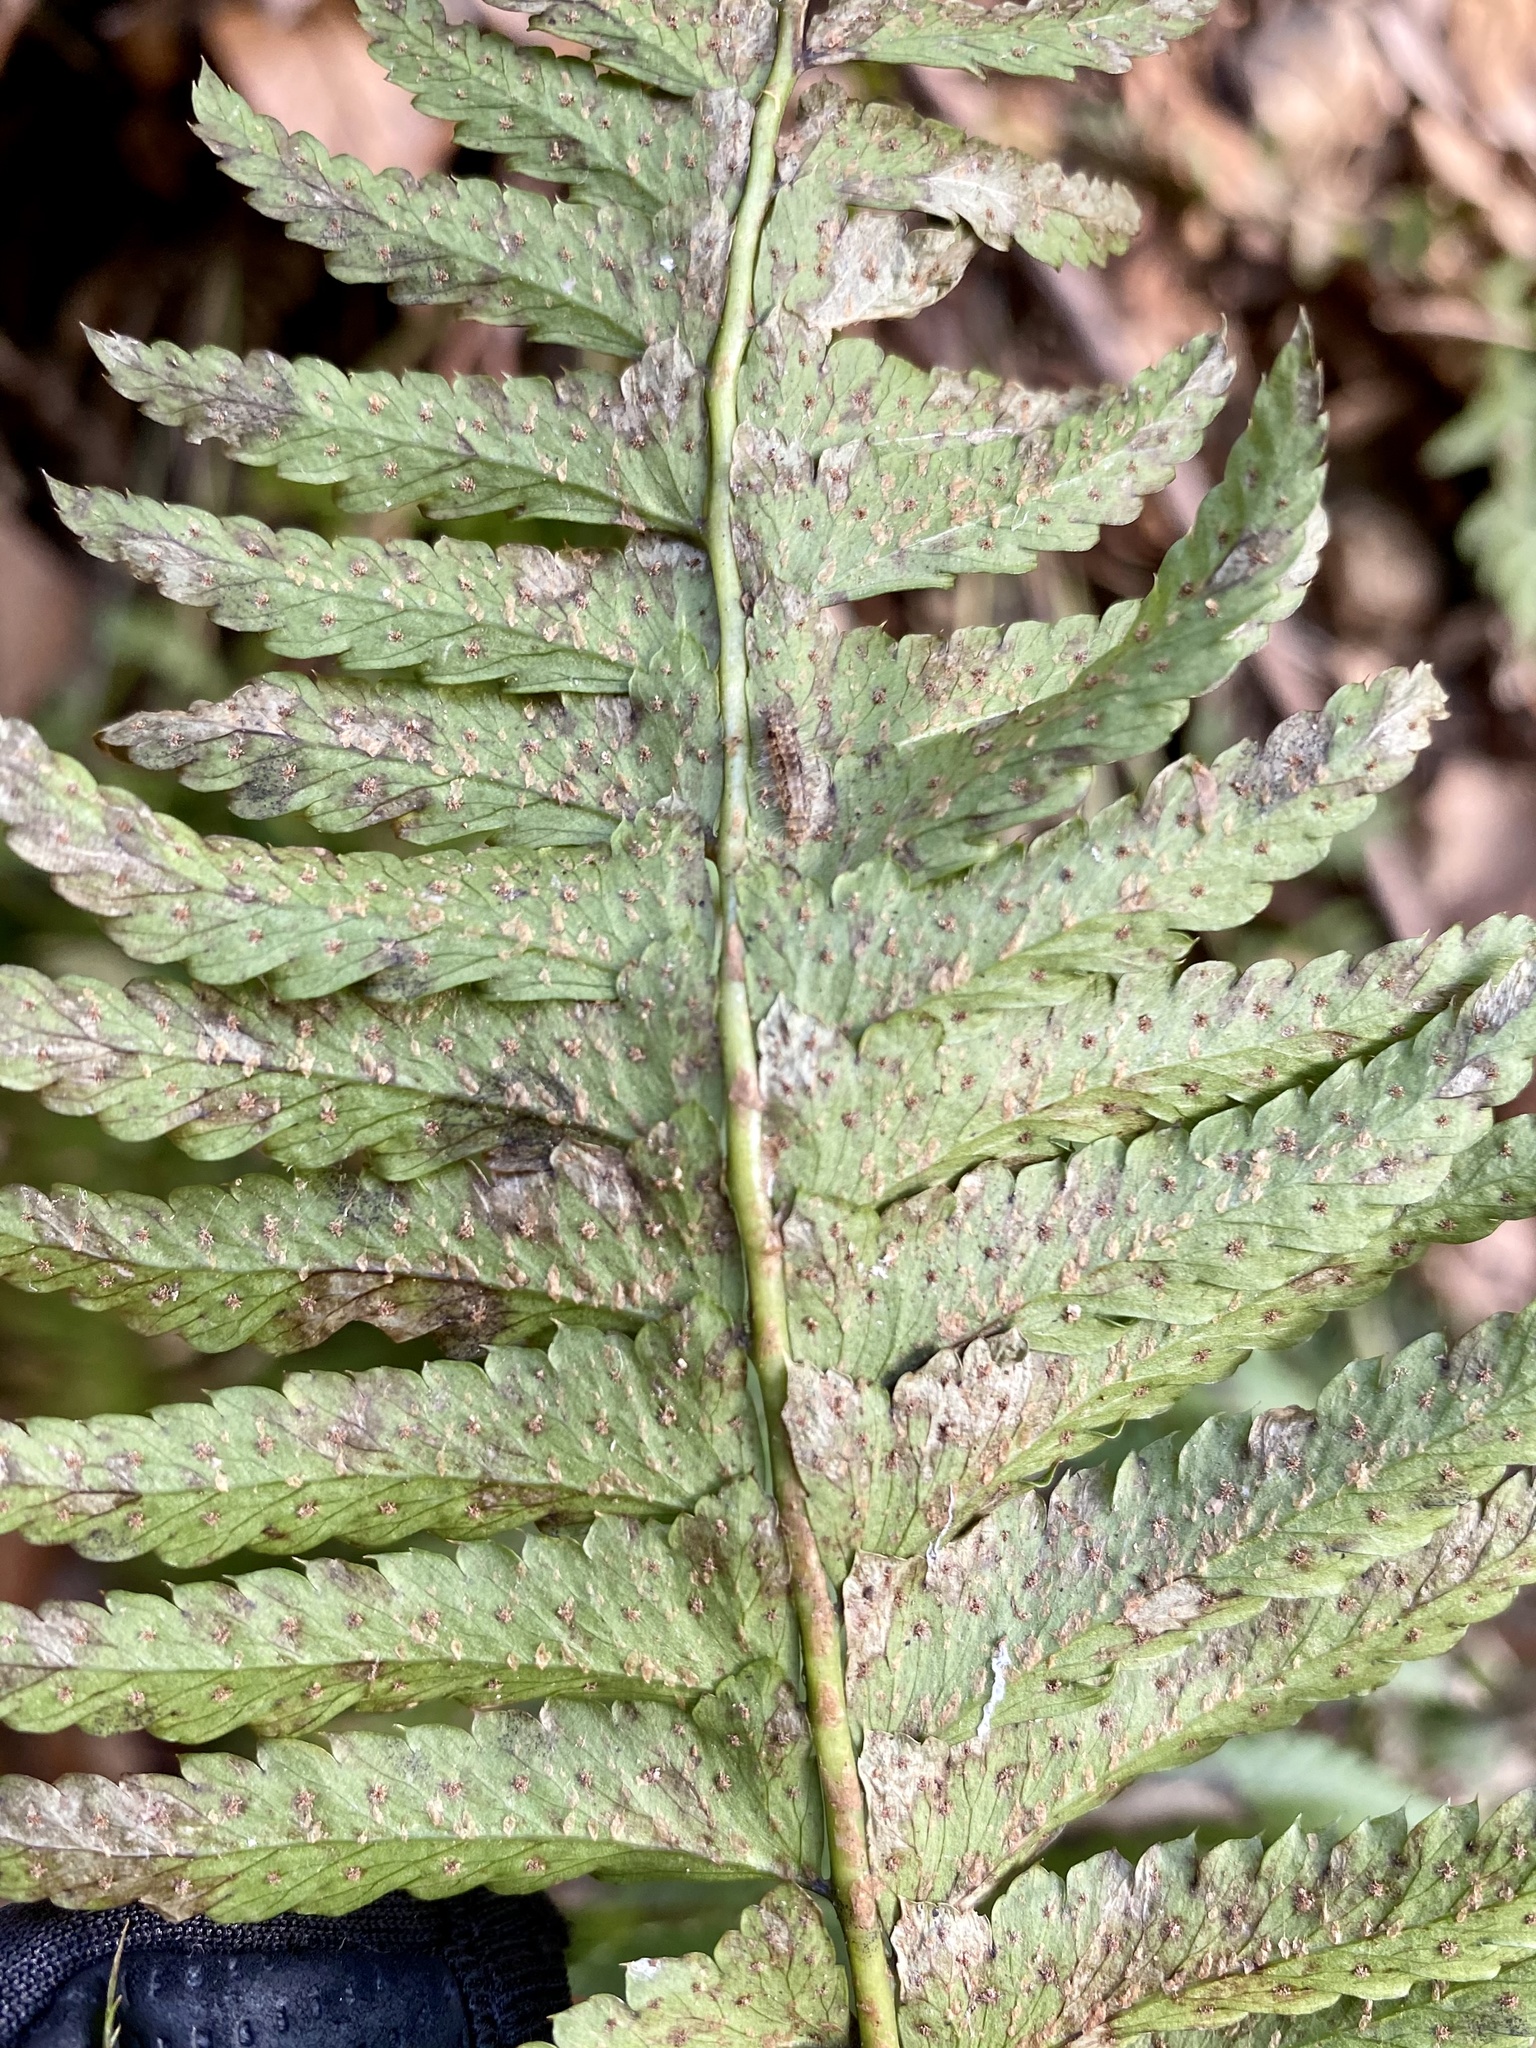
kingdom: Plantae
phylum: Tracheophyta
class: Polypodiopsida
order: Polypodiales
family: Dryopteridaceae
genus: Polystichum
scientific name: Polystichum tripteron
